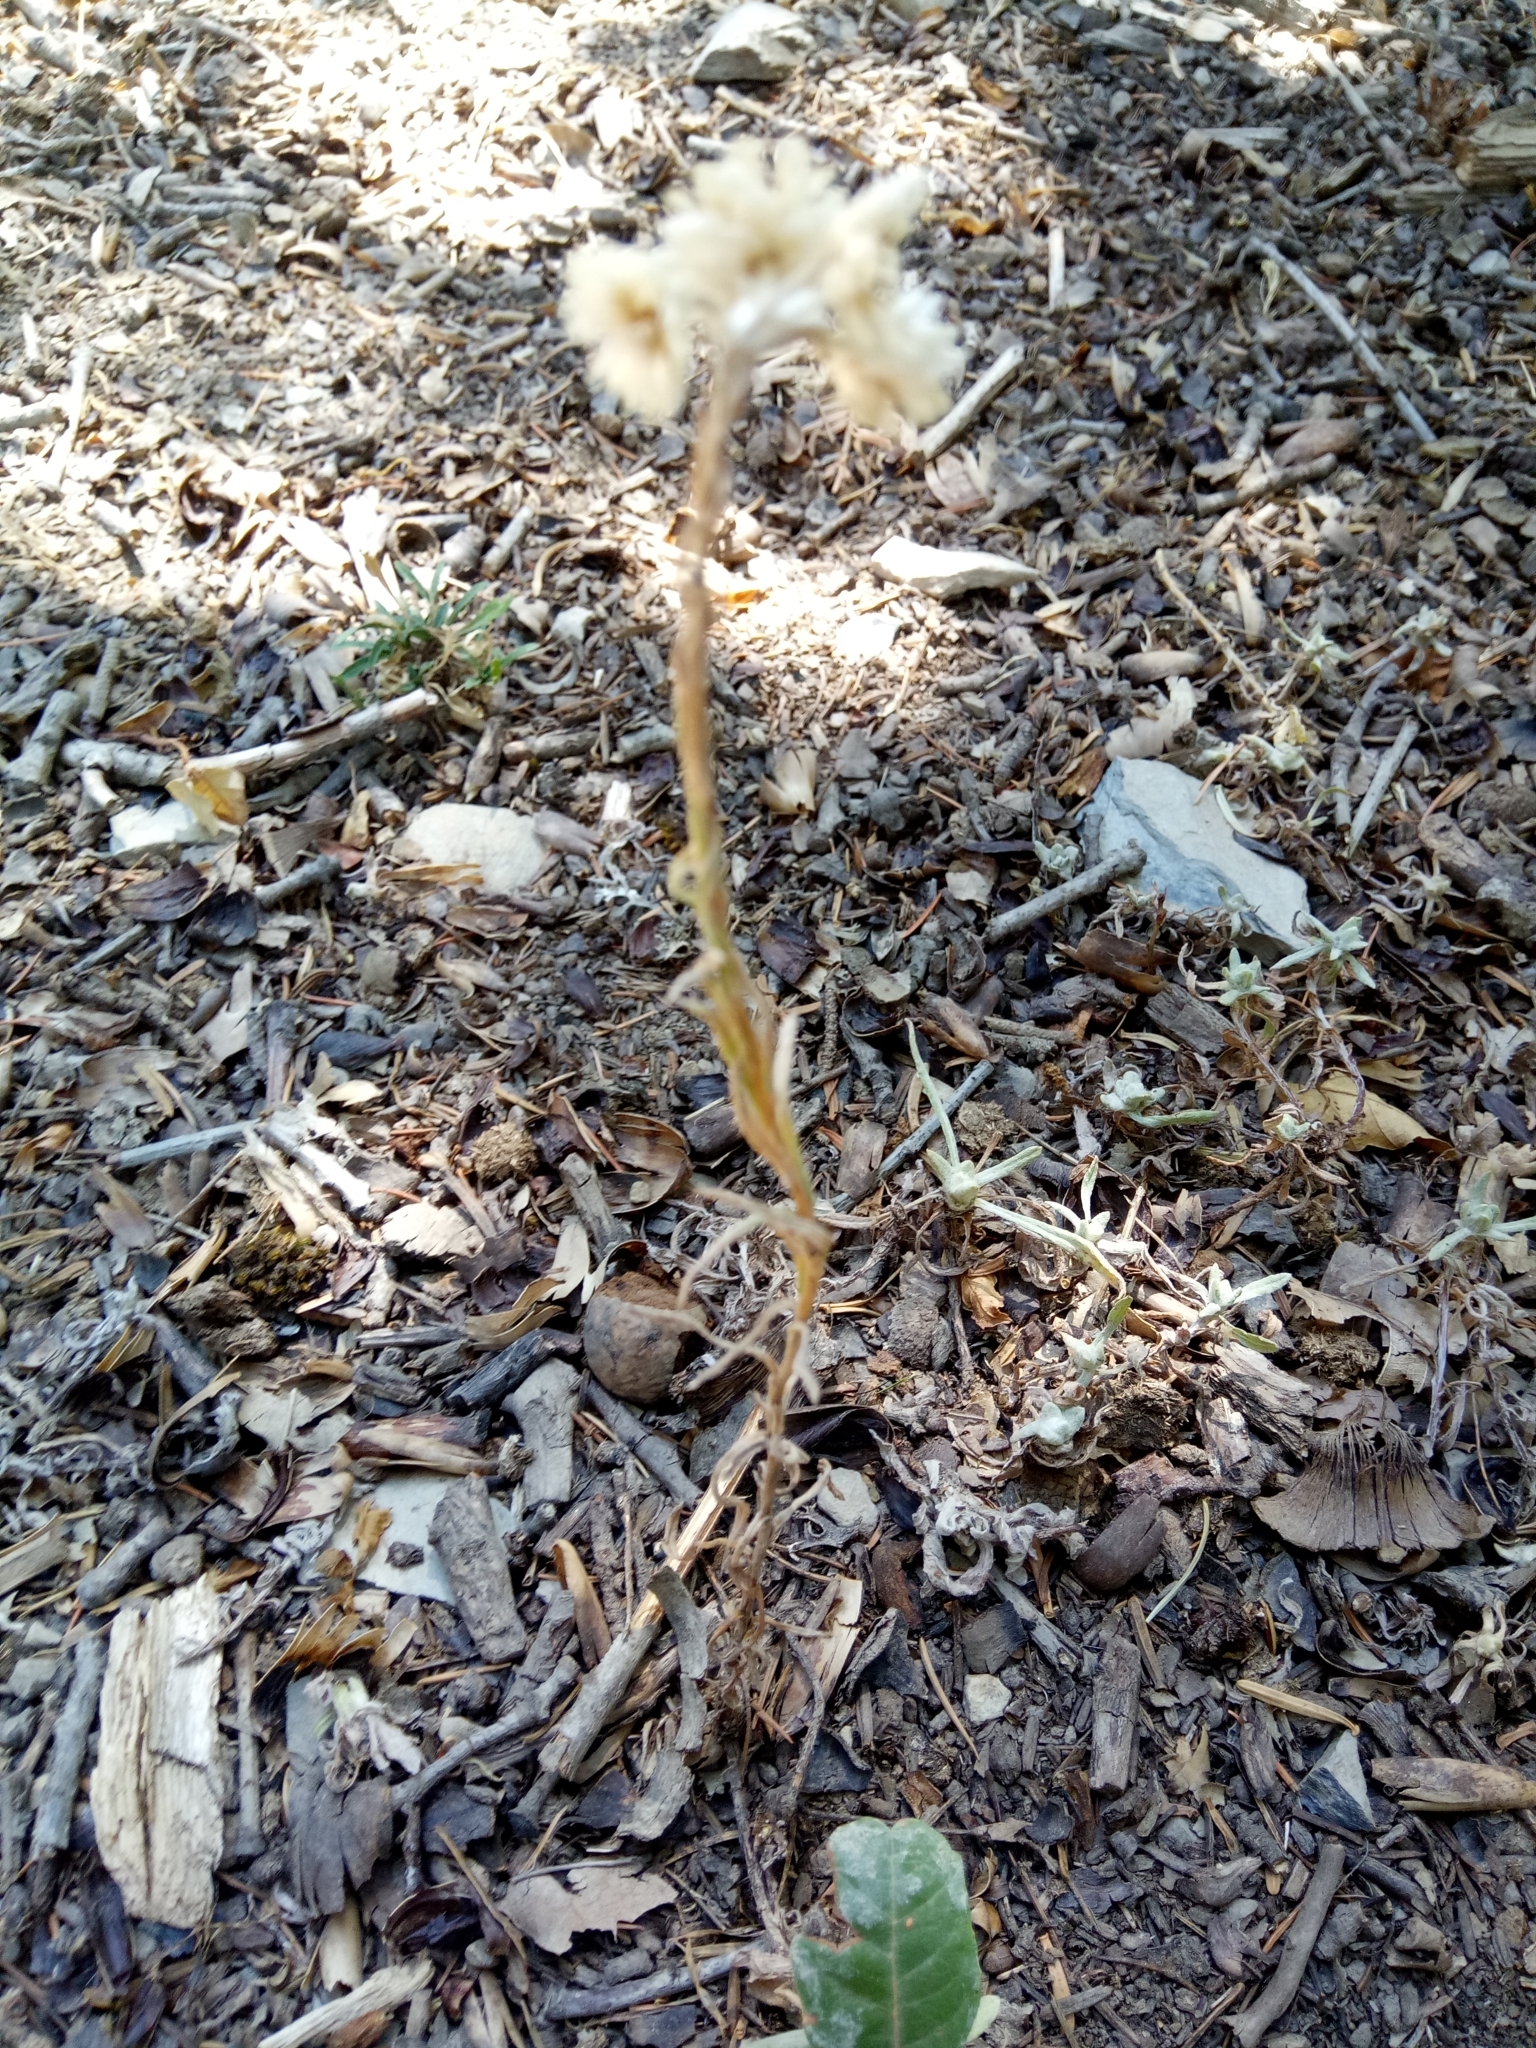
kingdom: Plantae
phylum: Tracheophyta
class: Magnoliopsida
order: Asterales
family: Asteraceae
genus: Helichrysum
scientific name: Helichrysum lacteum
